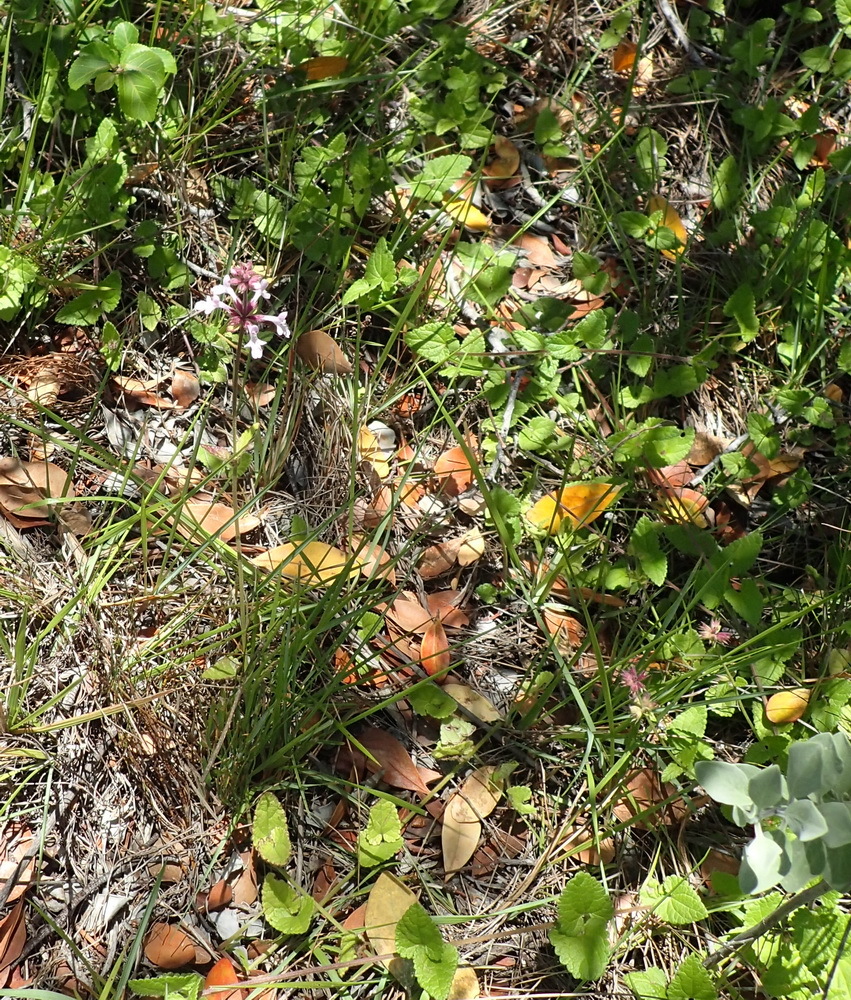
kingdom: Plantae
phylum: Tracheophyta
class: Magnoliopsida
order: Lamiales
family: Lamiaceae
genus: Stachys
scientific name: Stachys aethiopica
